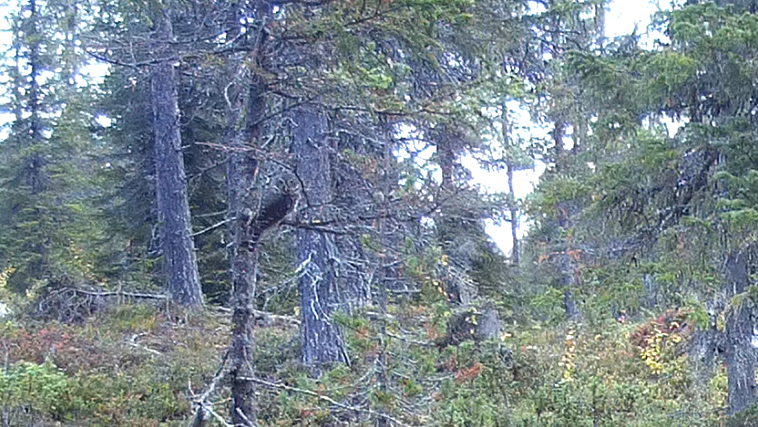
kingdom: Animalia
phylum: Chordata
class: Aves
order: Strigiformes
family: Strigidae
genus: Glaucidium
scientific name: Glaucidium passerinum
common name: Eurasian pygmy owl
